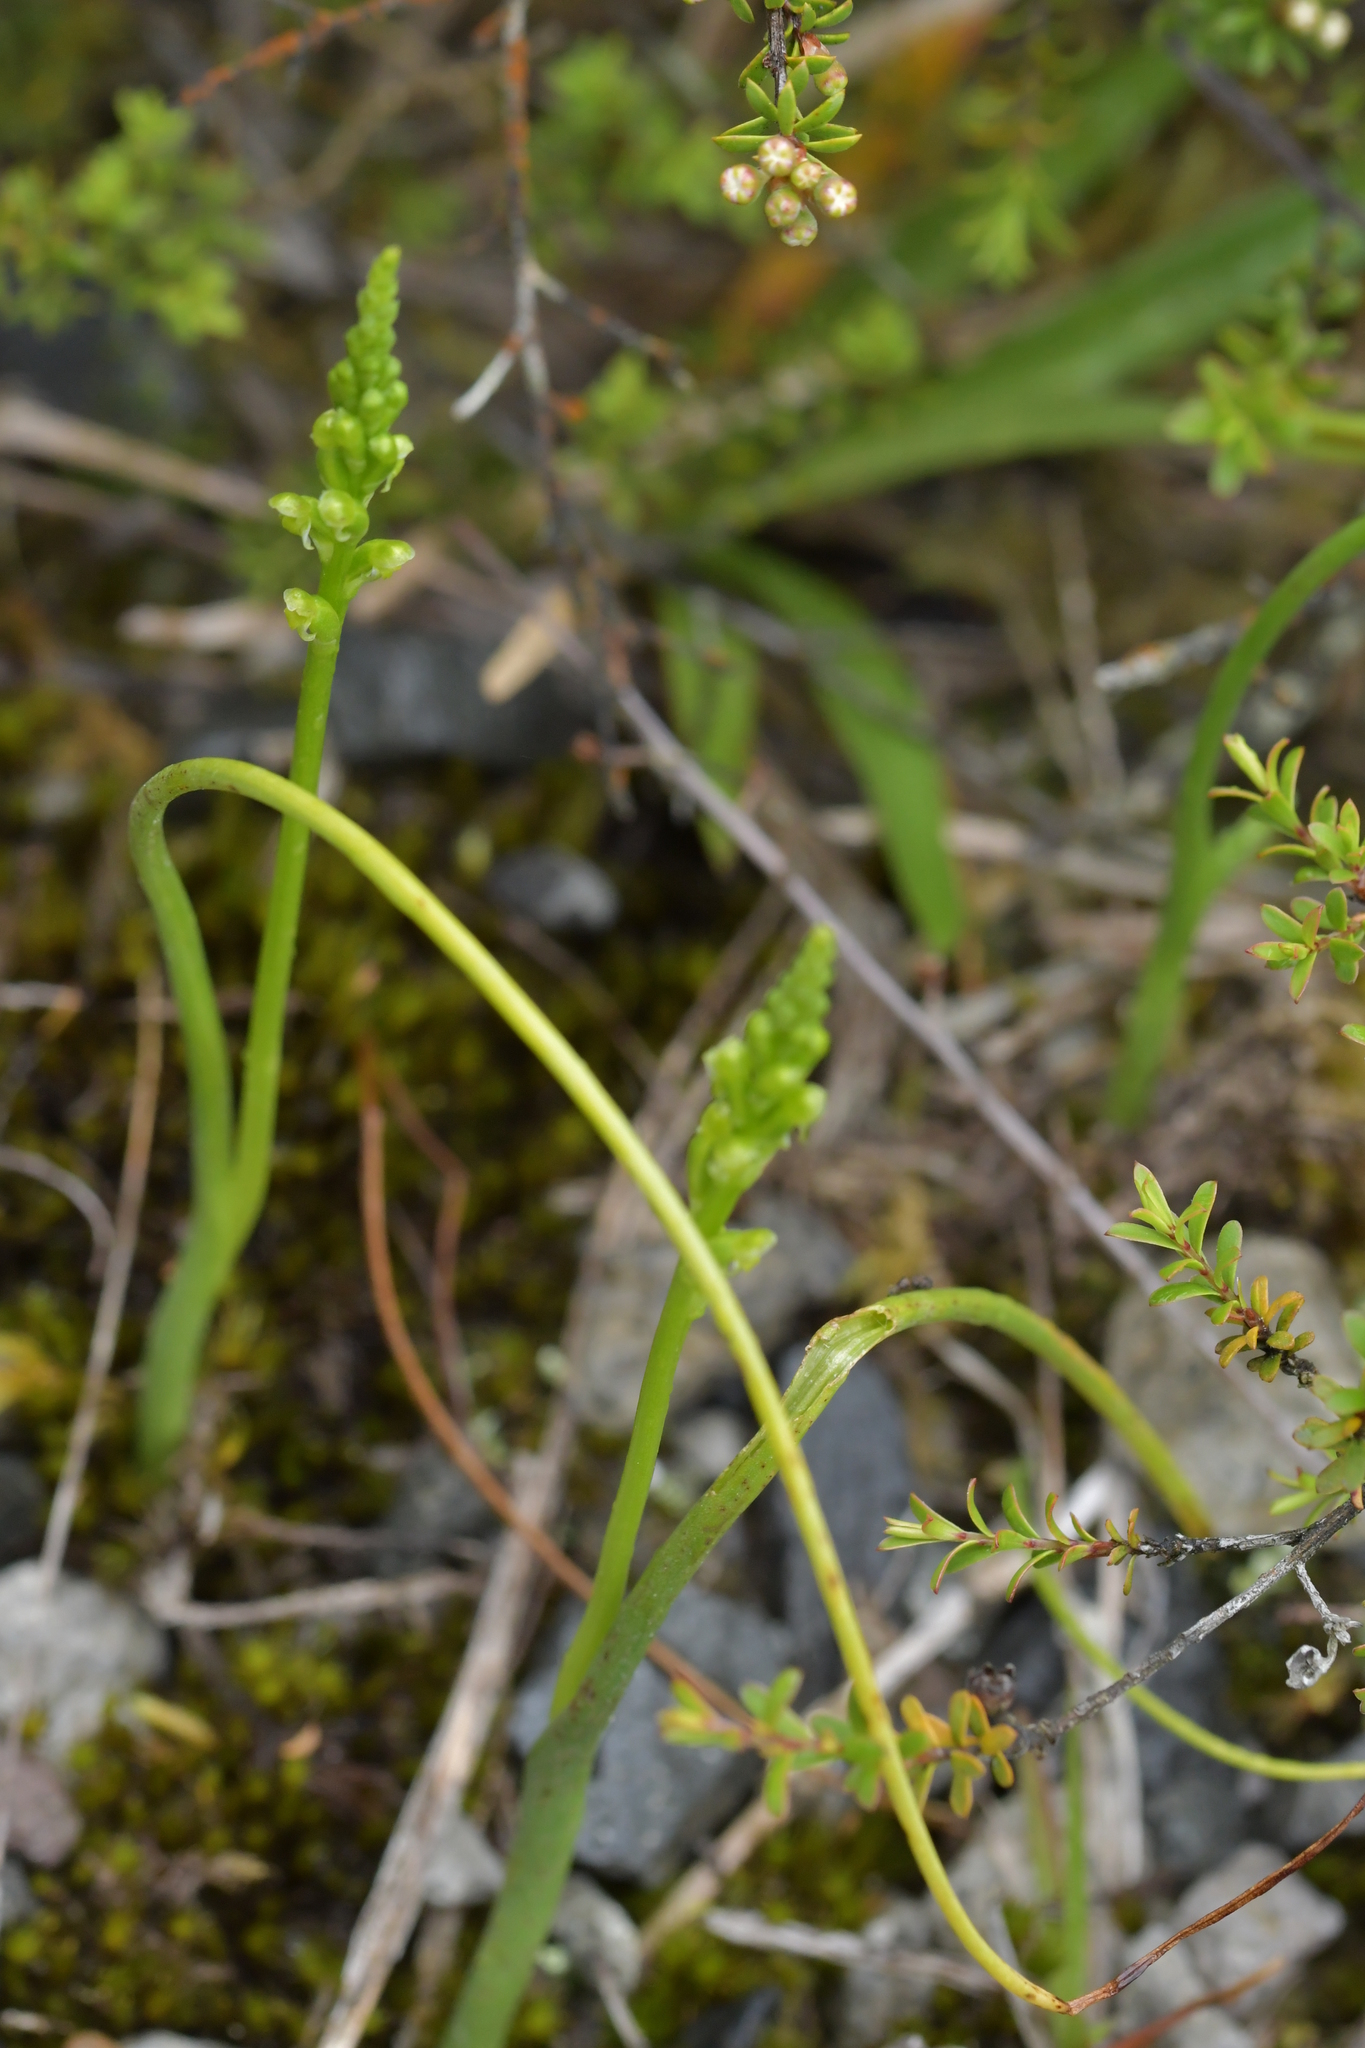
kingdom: Plantae
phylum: Tracheophyta
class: Liliopsida
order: Asparagales
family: Orchidaceae
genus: Microtis
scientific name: Microtis unifolia
